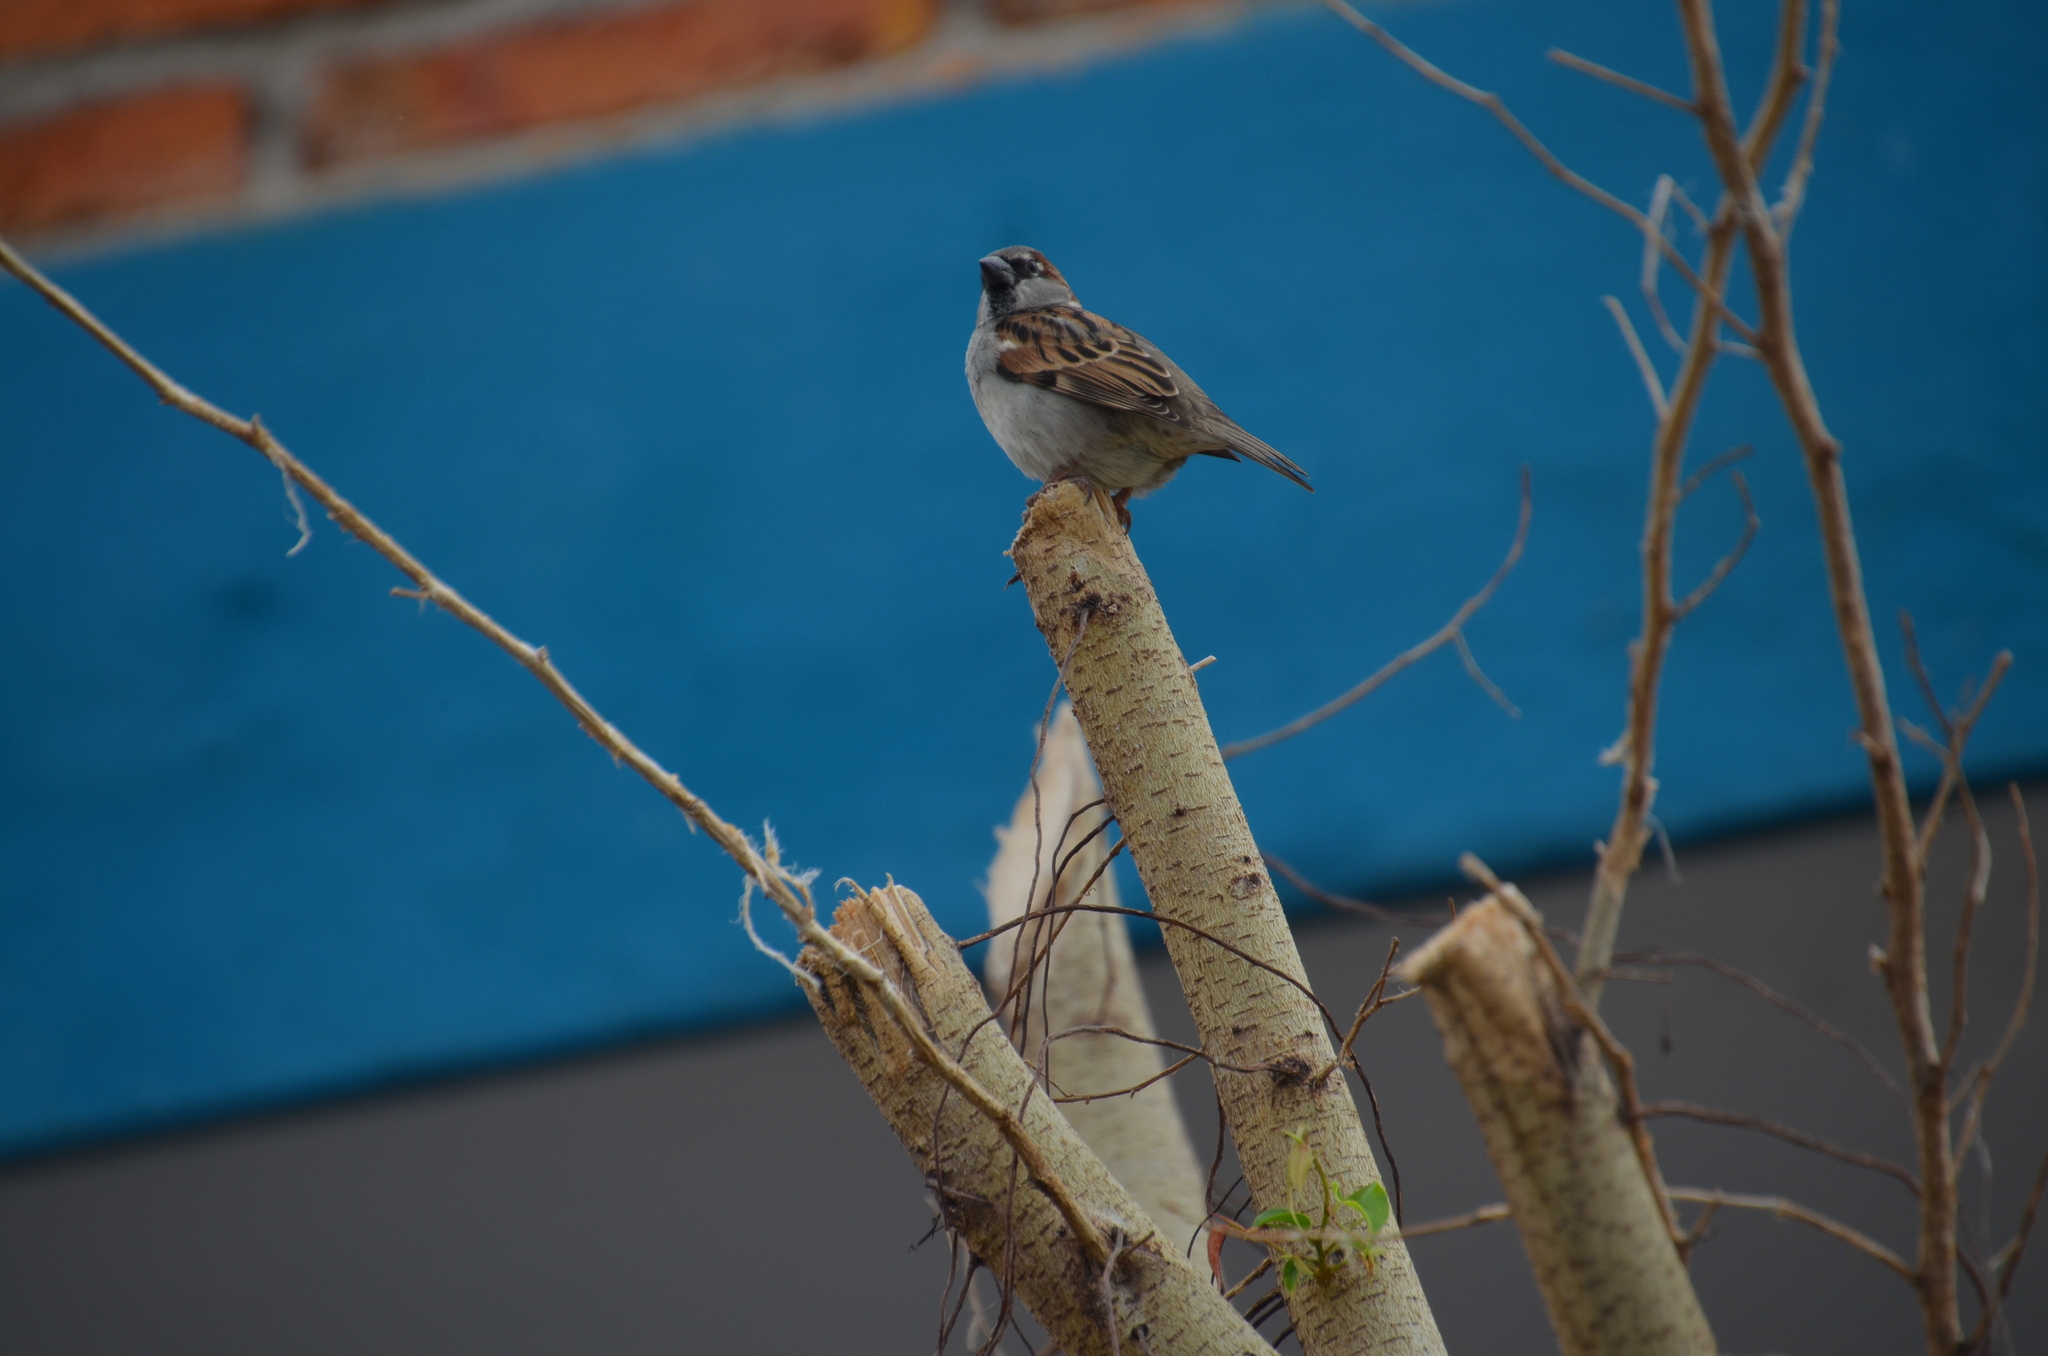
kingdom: Animalia
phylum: Chordata
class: Aves
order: Passeriformes
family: Passeridae
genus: Passer
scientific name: Passer domesticus
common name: House sparrow
